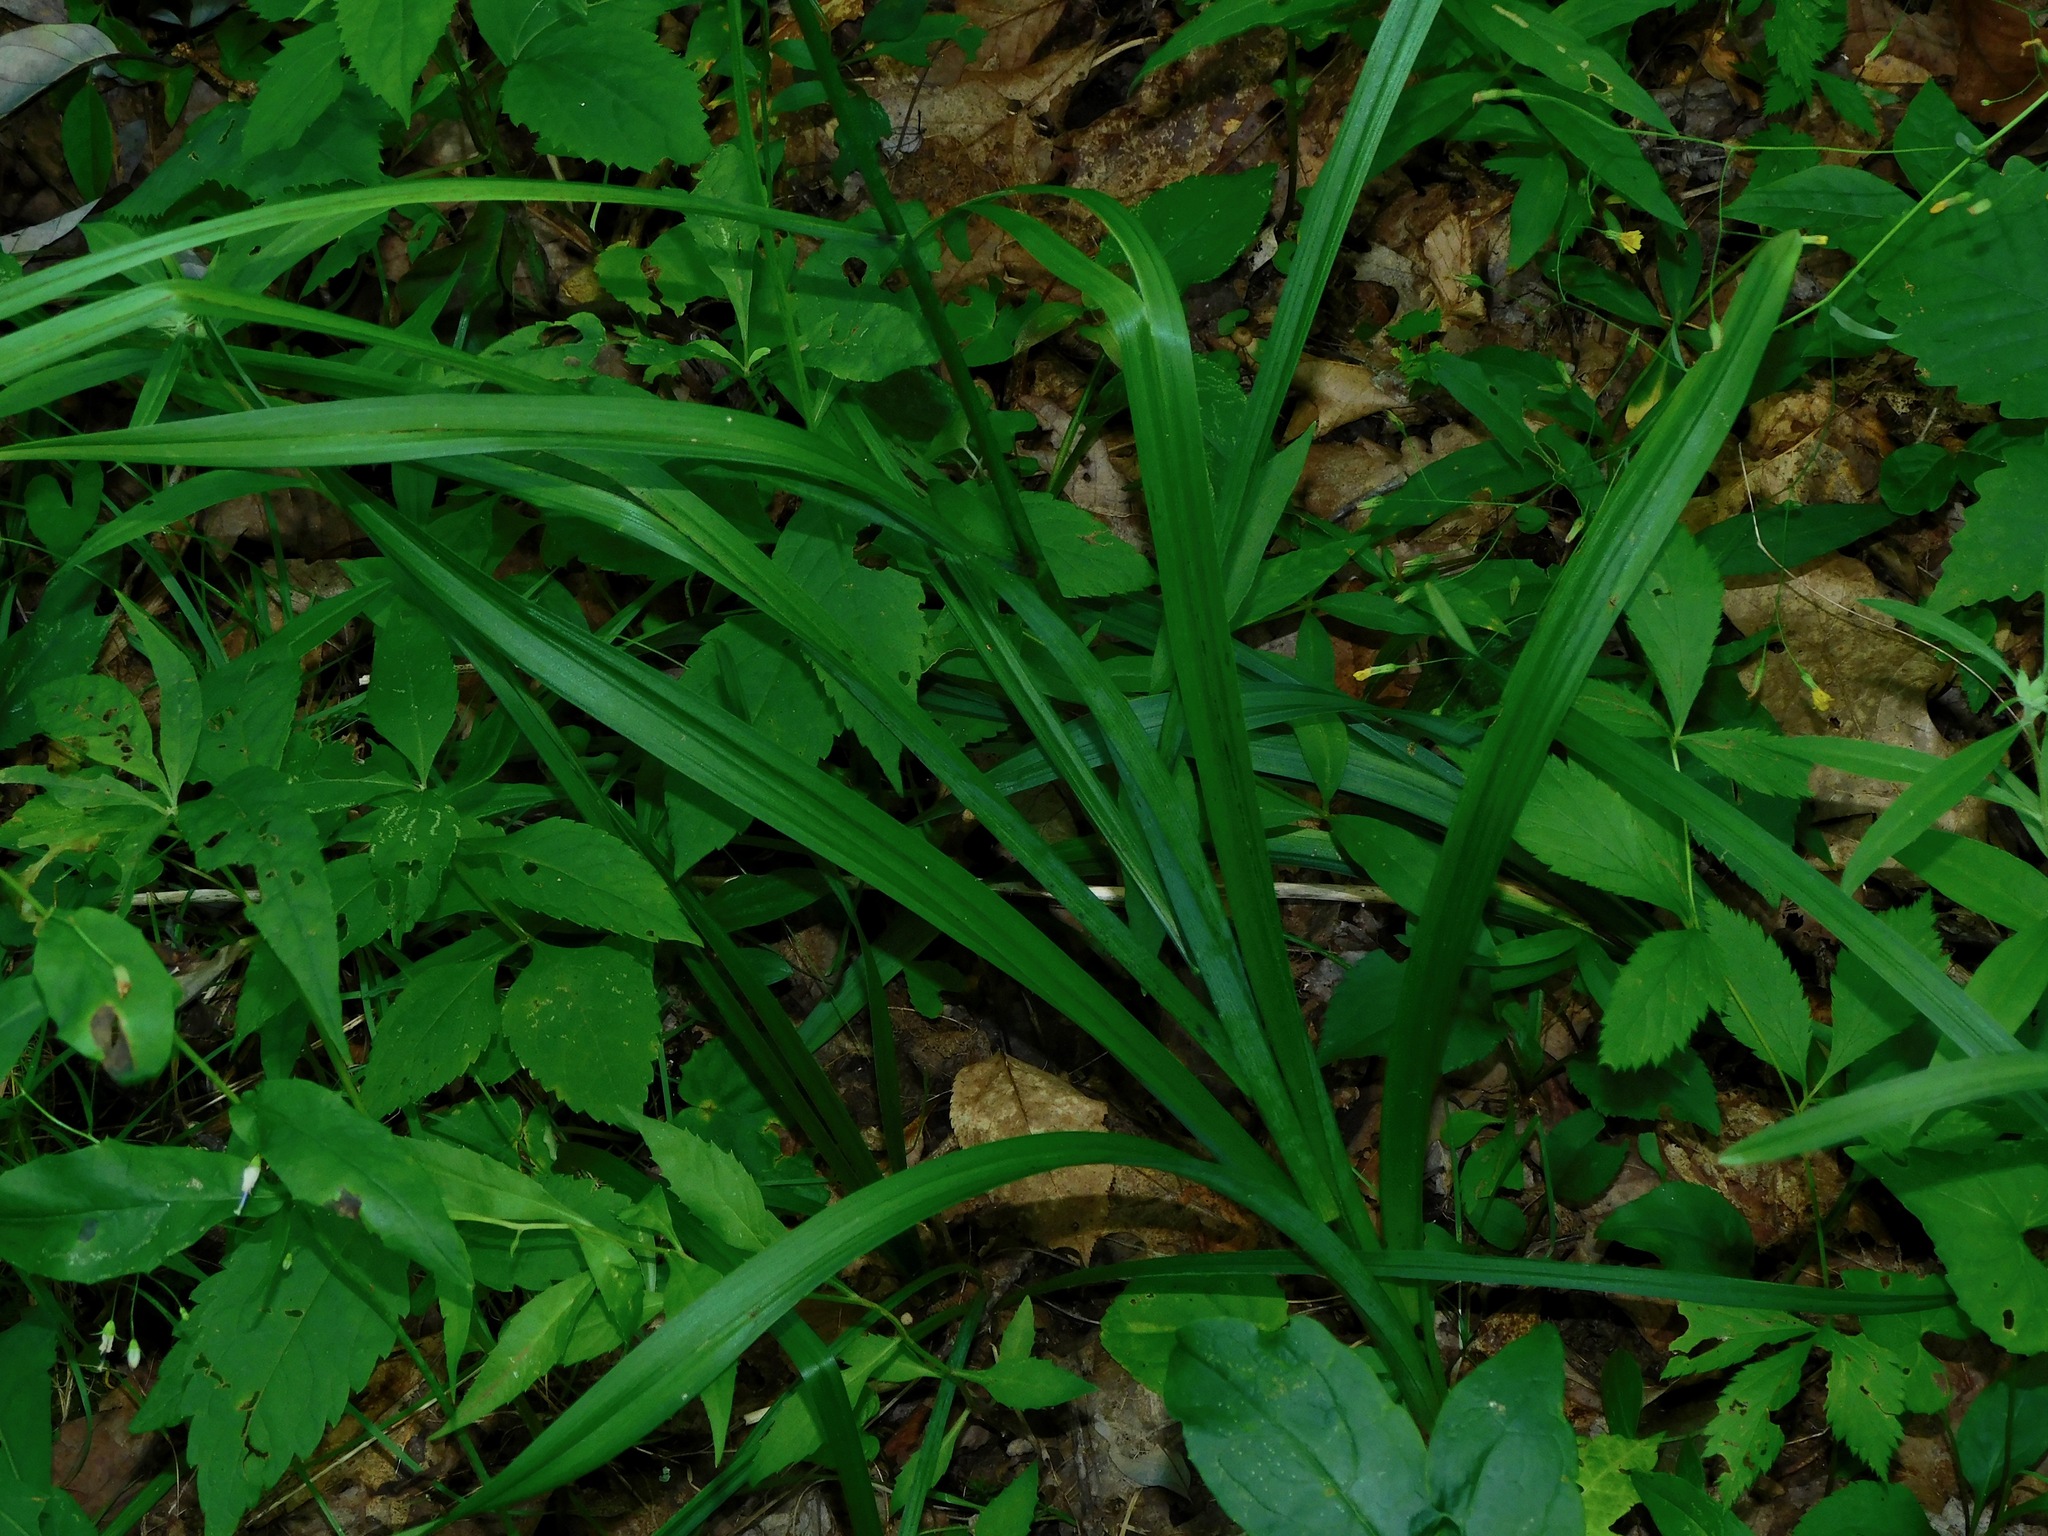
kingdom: Plantae
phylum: Tracheophyta
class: Liliopsida
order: Liliales
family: Melanthiaceae
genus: Stenanthium
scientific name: Stenanthium gramineum
